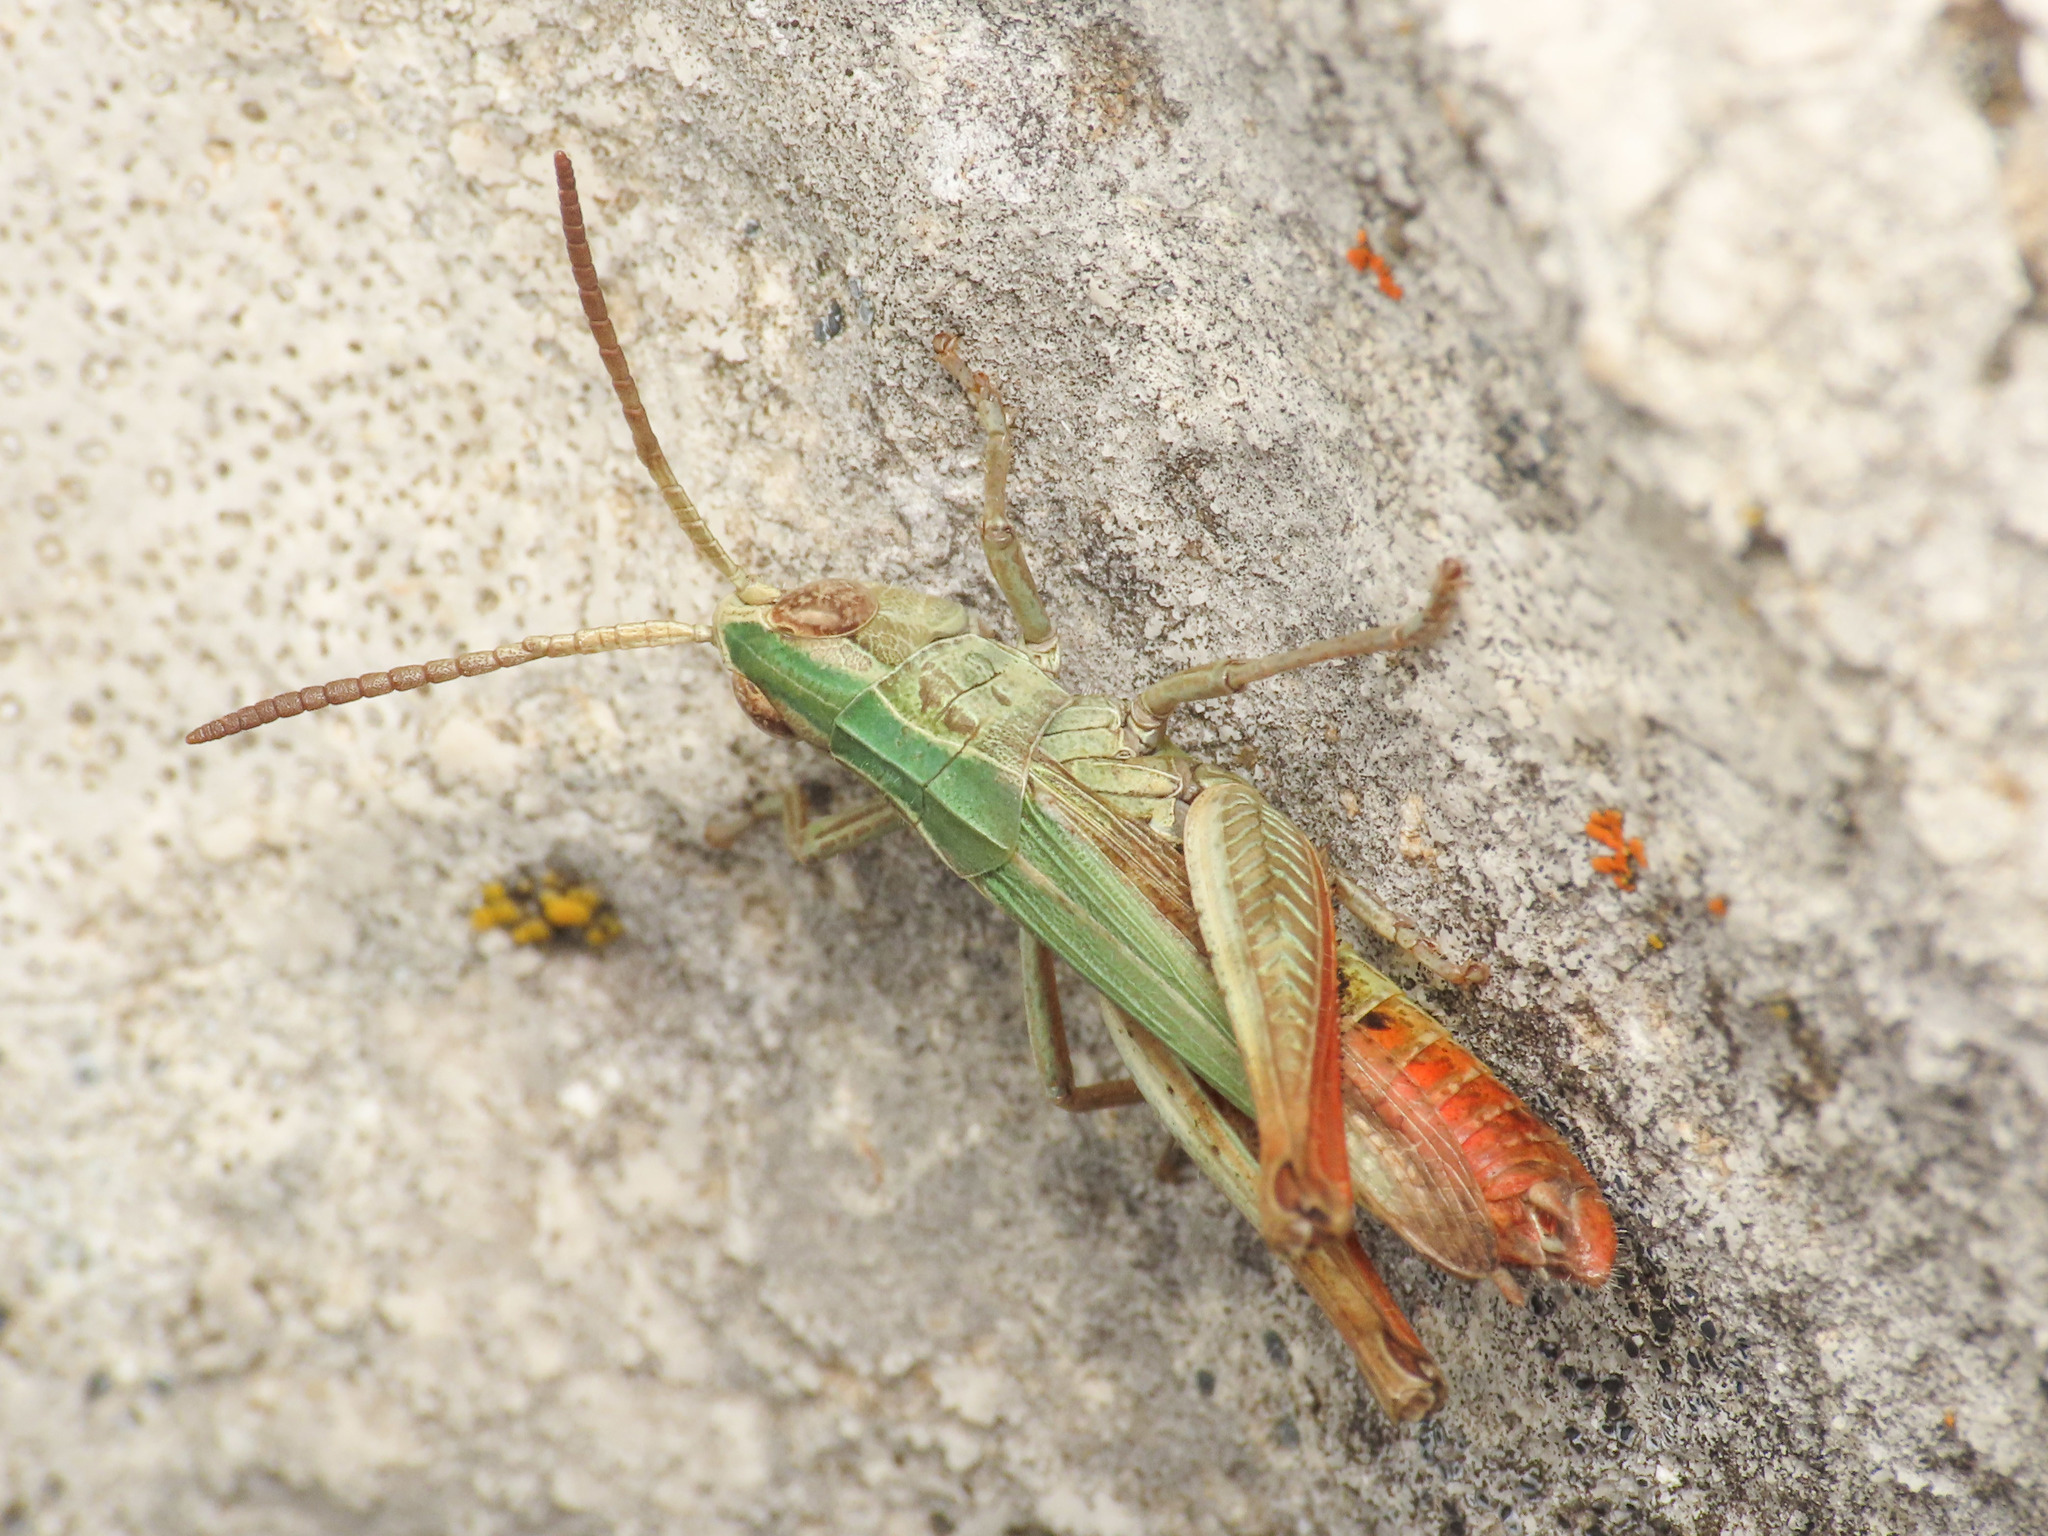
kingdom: Animalia
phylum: Arthropoda
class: Insecta
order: Orthoptera
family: Acrididae
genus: Chorthippus
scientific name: Chorthippus dorsatus
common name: Steppe grasshopper
